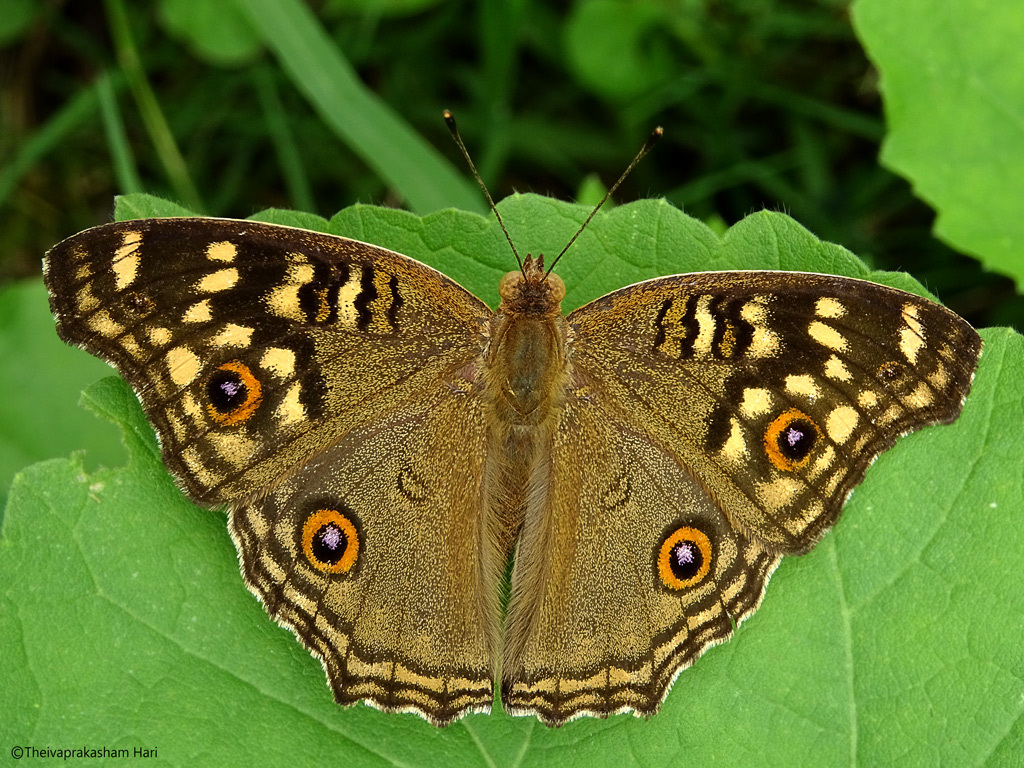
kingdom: Animalia
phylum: Arthropoda
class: Insecta
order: Lepidoptera
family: Nymphalidae
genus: Junonia
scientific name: Junonia lemonias
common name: Lemon pansy
